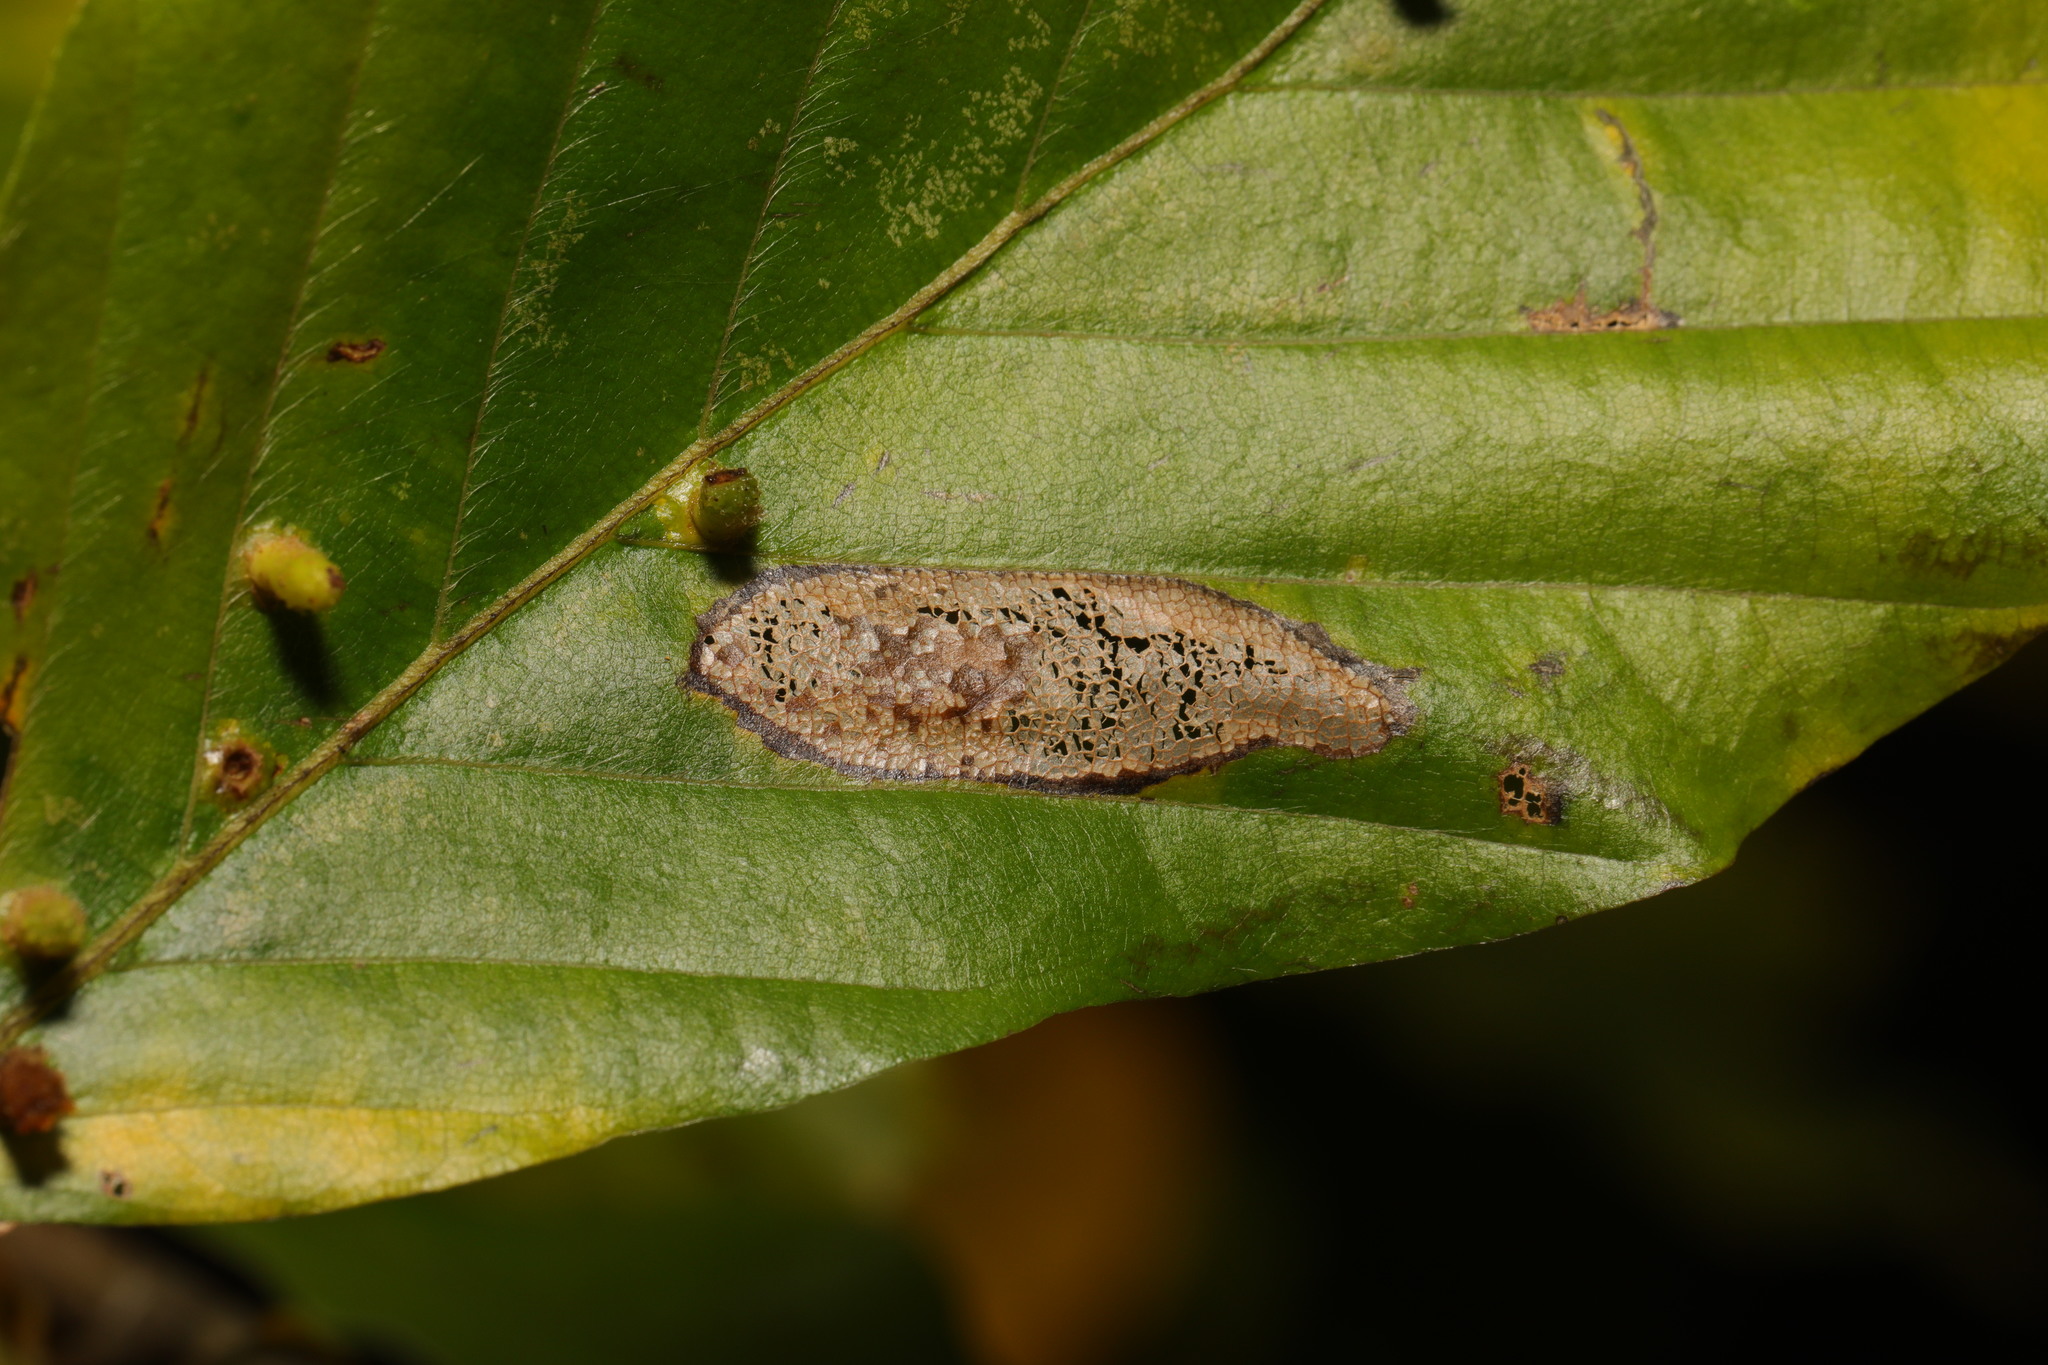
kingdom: Animalia
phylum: Arthropoda
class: Insecta
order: Lepidoptera
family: Gracillariidae
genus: Phyllonorycter
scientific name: Phyllonorycter maestingella
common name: Beech midget
